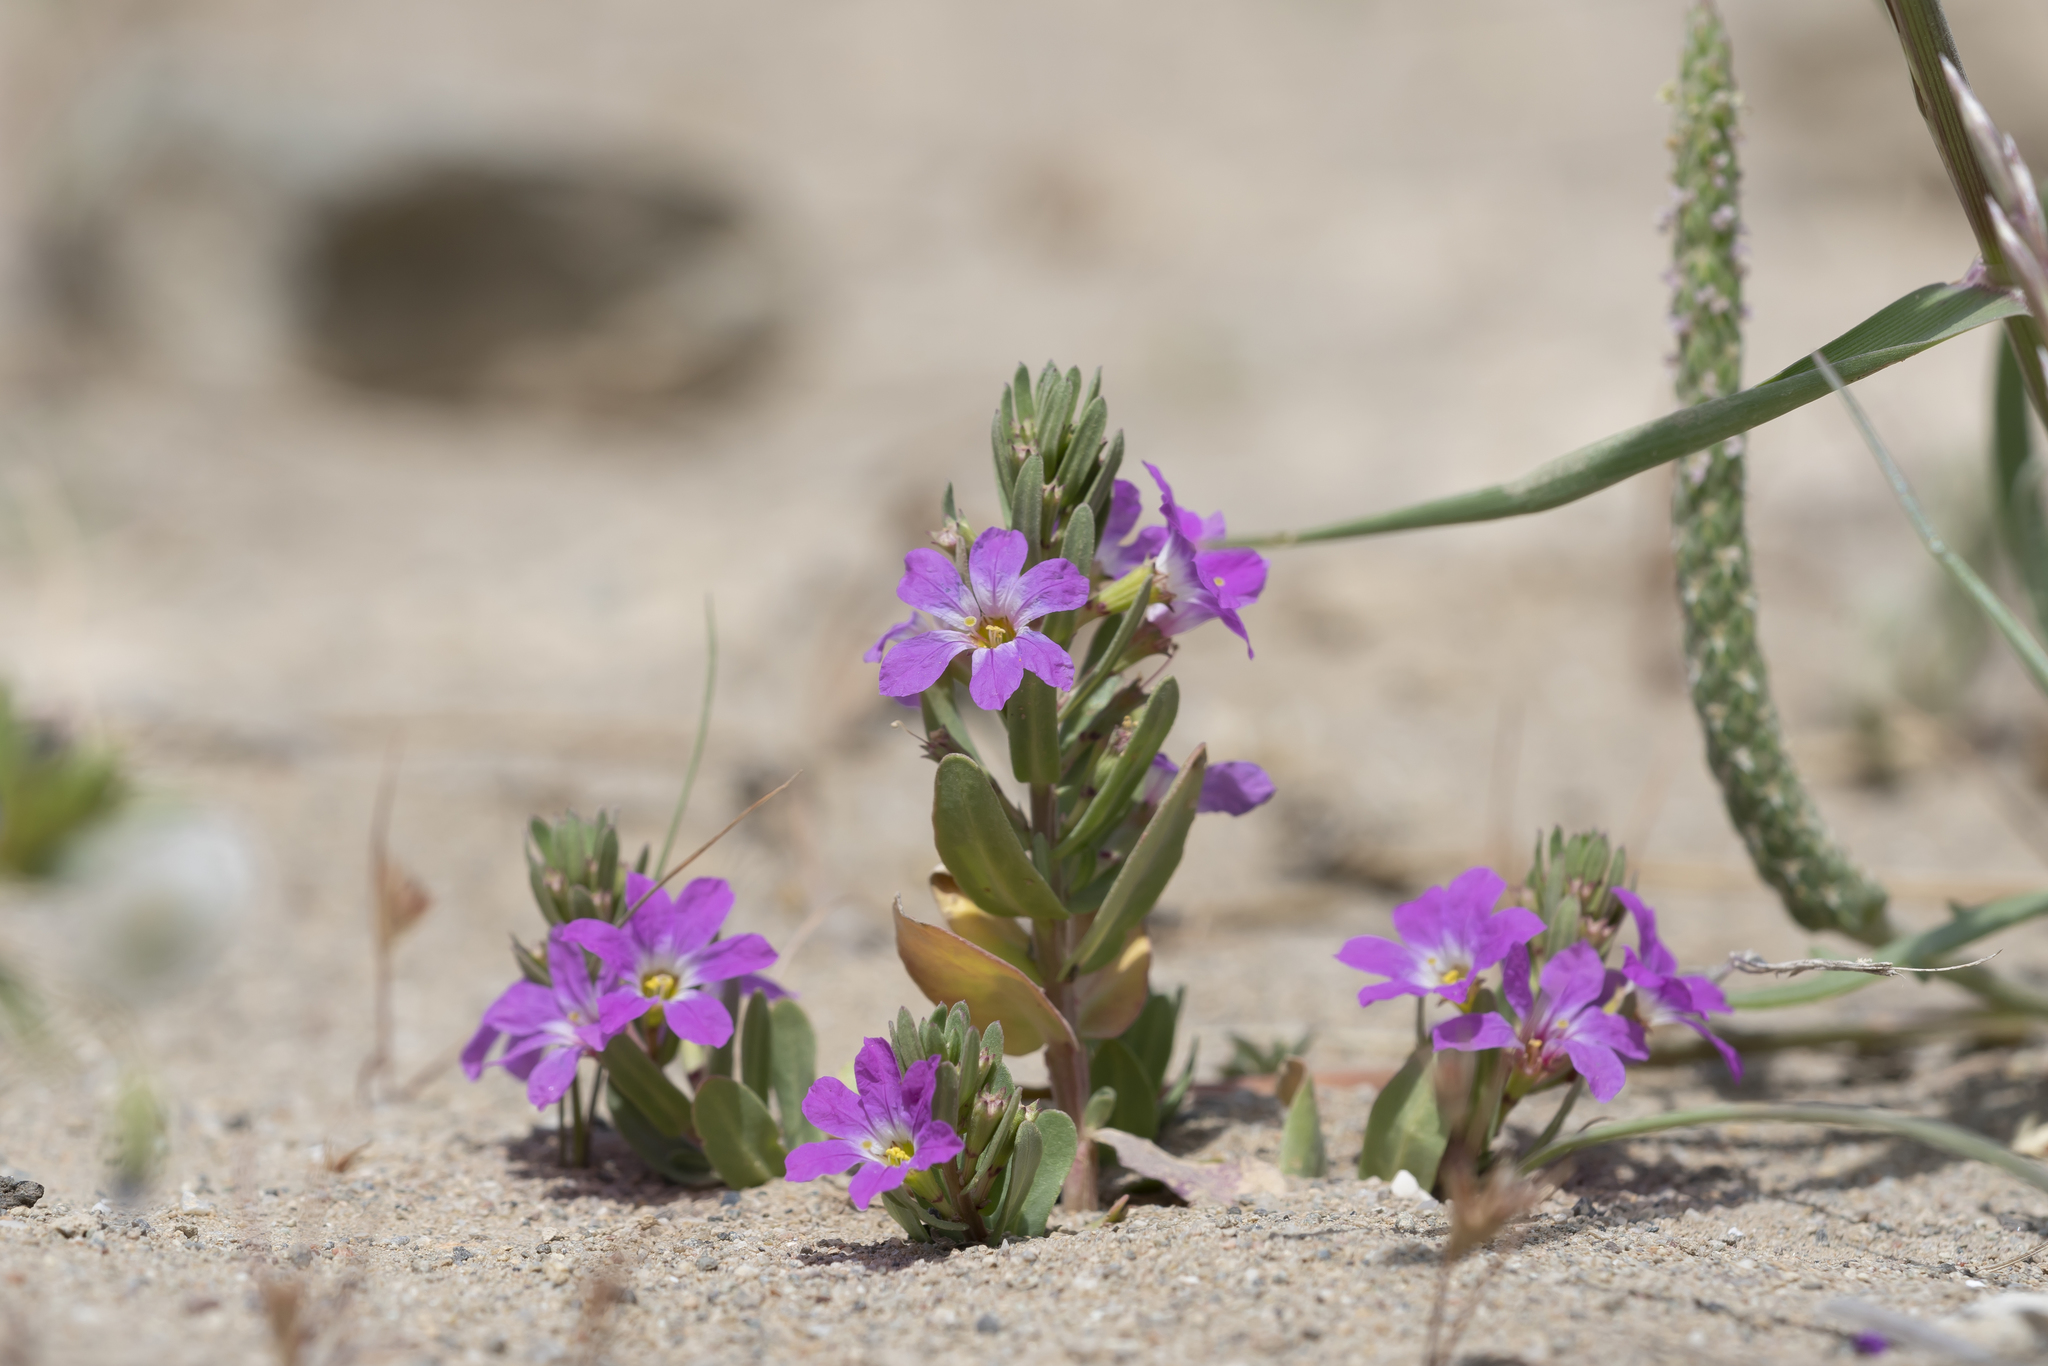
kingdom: Plantae
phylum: Tracheophyta
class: Magnoliopsida
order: Myrtales
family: Lythraceae
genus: Lythrum
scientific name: Lythrum junceum
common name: False grass-poly
